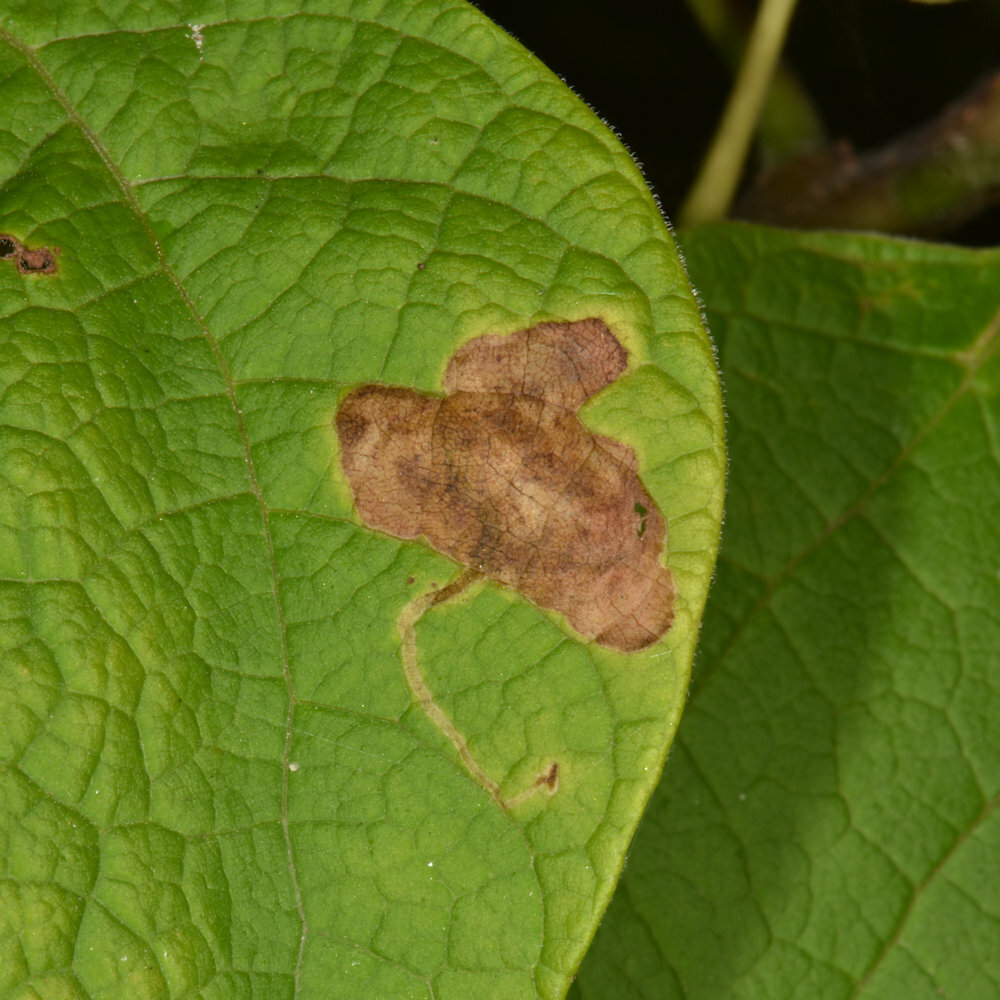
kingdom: Animalia
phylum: Arthropoda
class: Insecta
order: Diptera
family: Agromyzidae
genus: Amauromyza
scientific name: Amauromyza pleuralis
